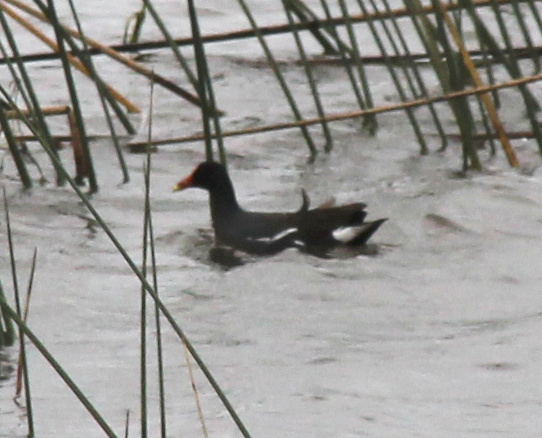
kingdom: Animalia
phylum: Chordata
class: Aves
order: Gruiformes
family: Rallidae
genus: Gallinula
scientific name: Gallinula chloropus
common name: Common moorhen
